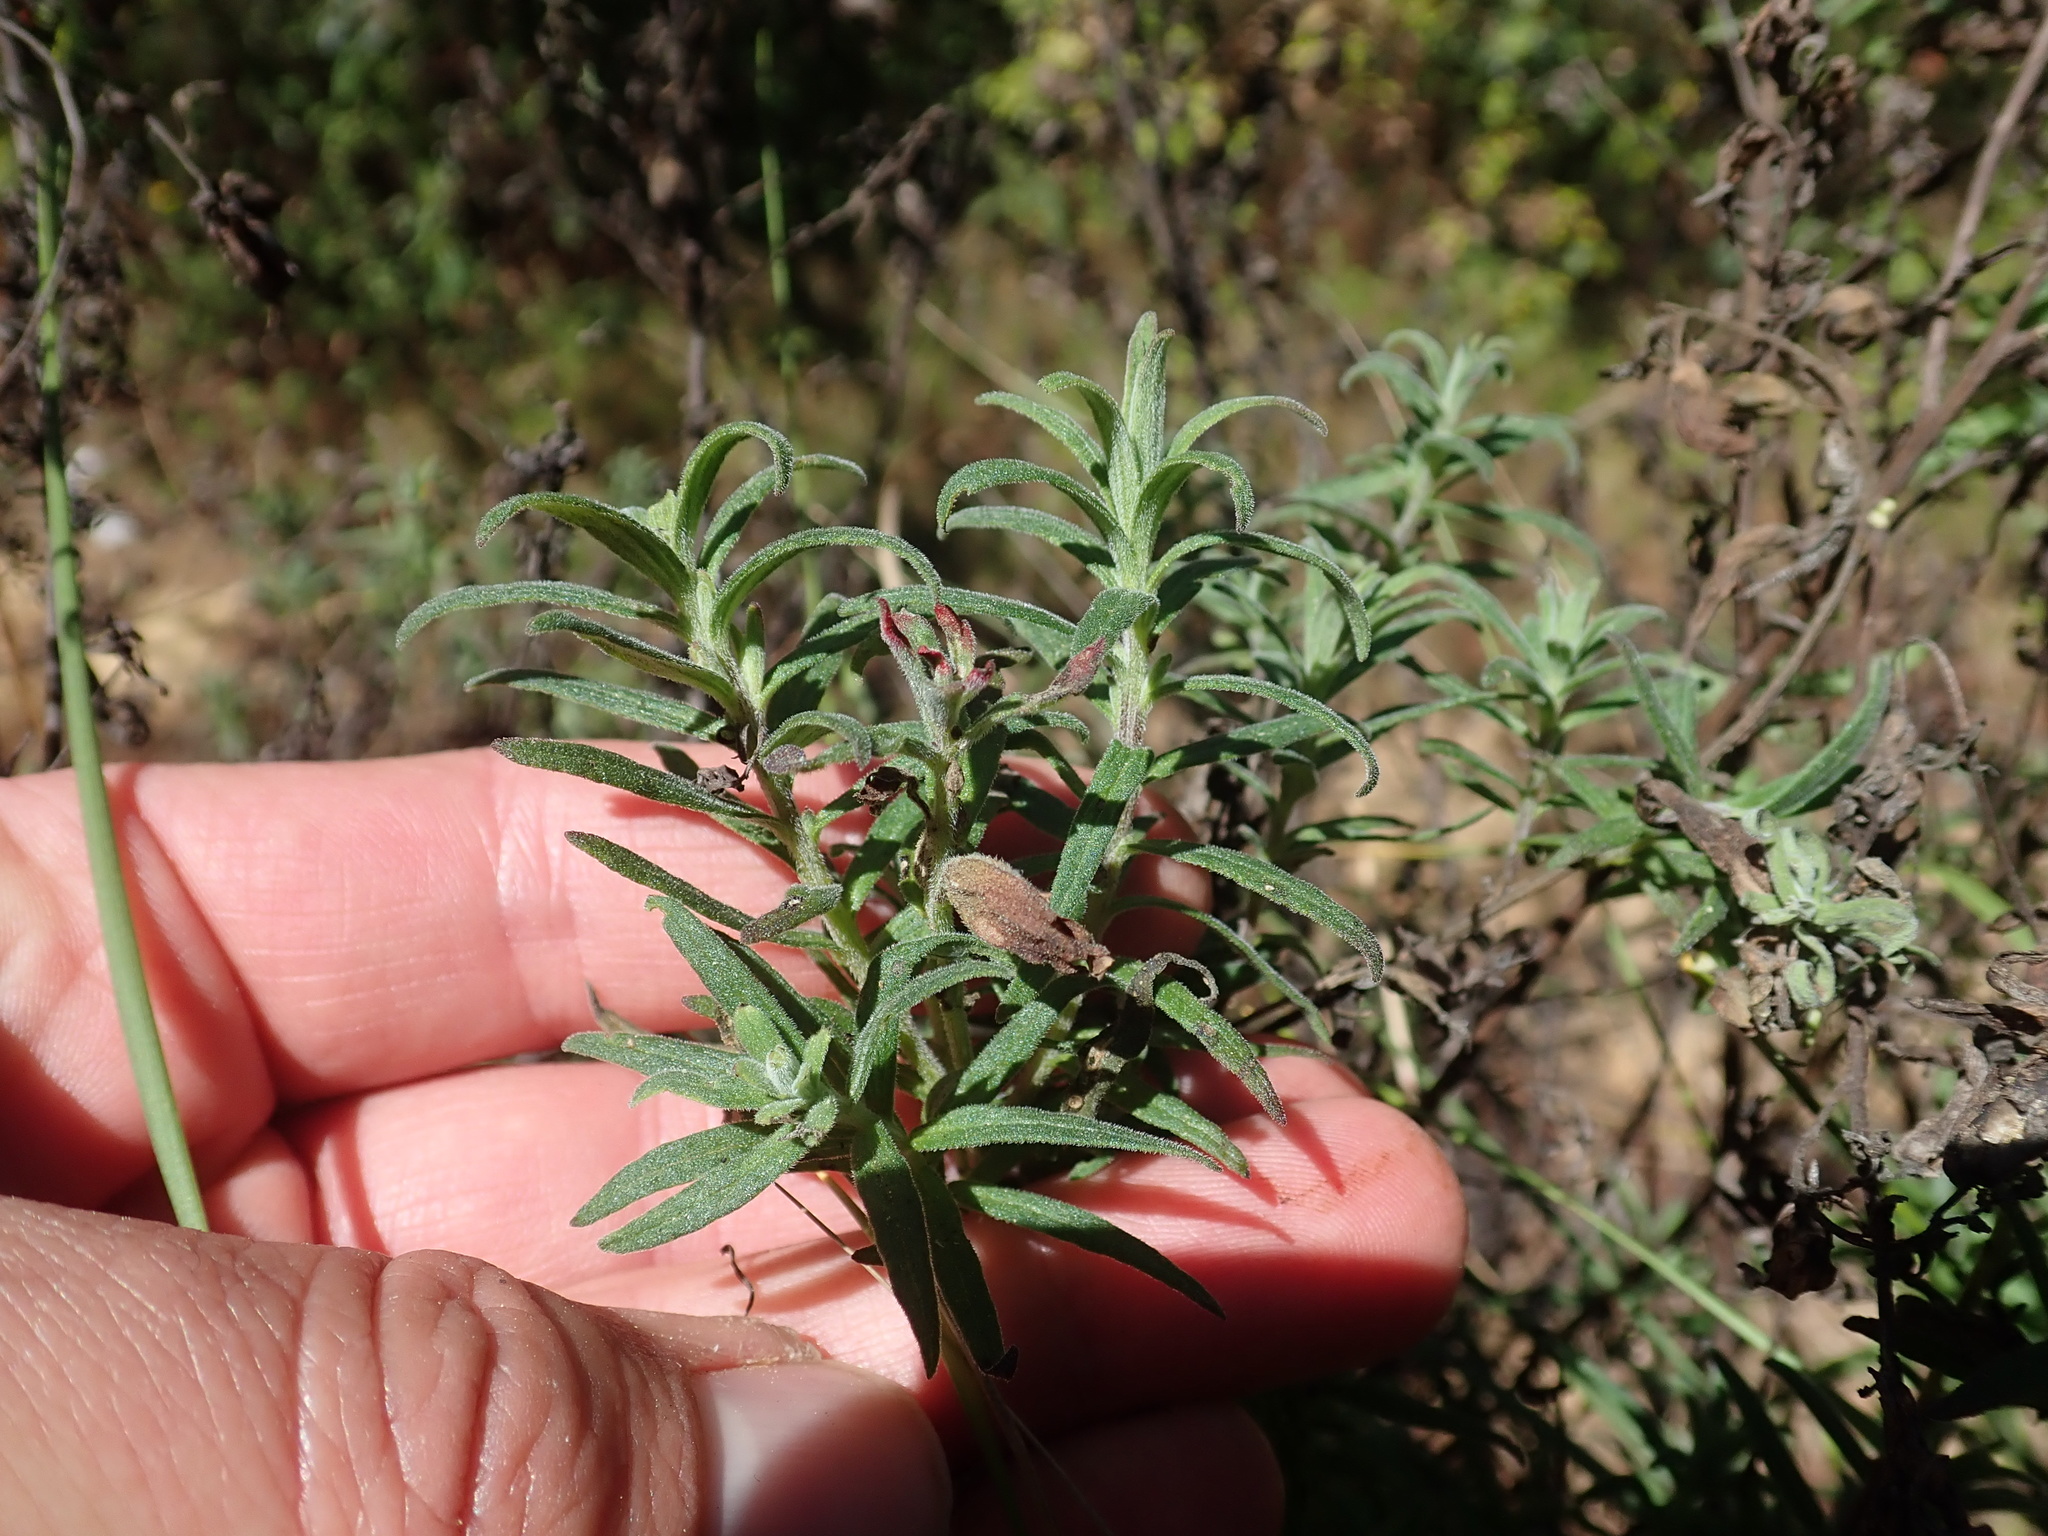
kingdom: Plantae
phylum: Tracheophyta
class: Magnoliopsida
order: Lamiales
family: Orobanchaceae
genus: Castilleja
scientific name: Castilleja tenuiflora
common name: Santa catalina indian paintbrush
